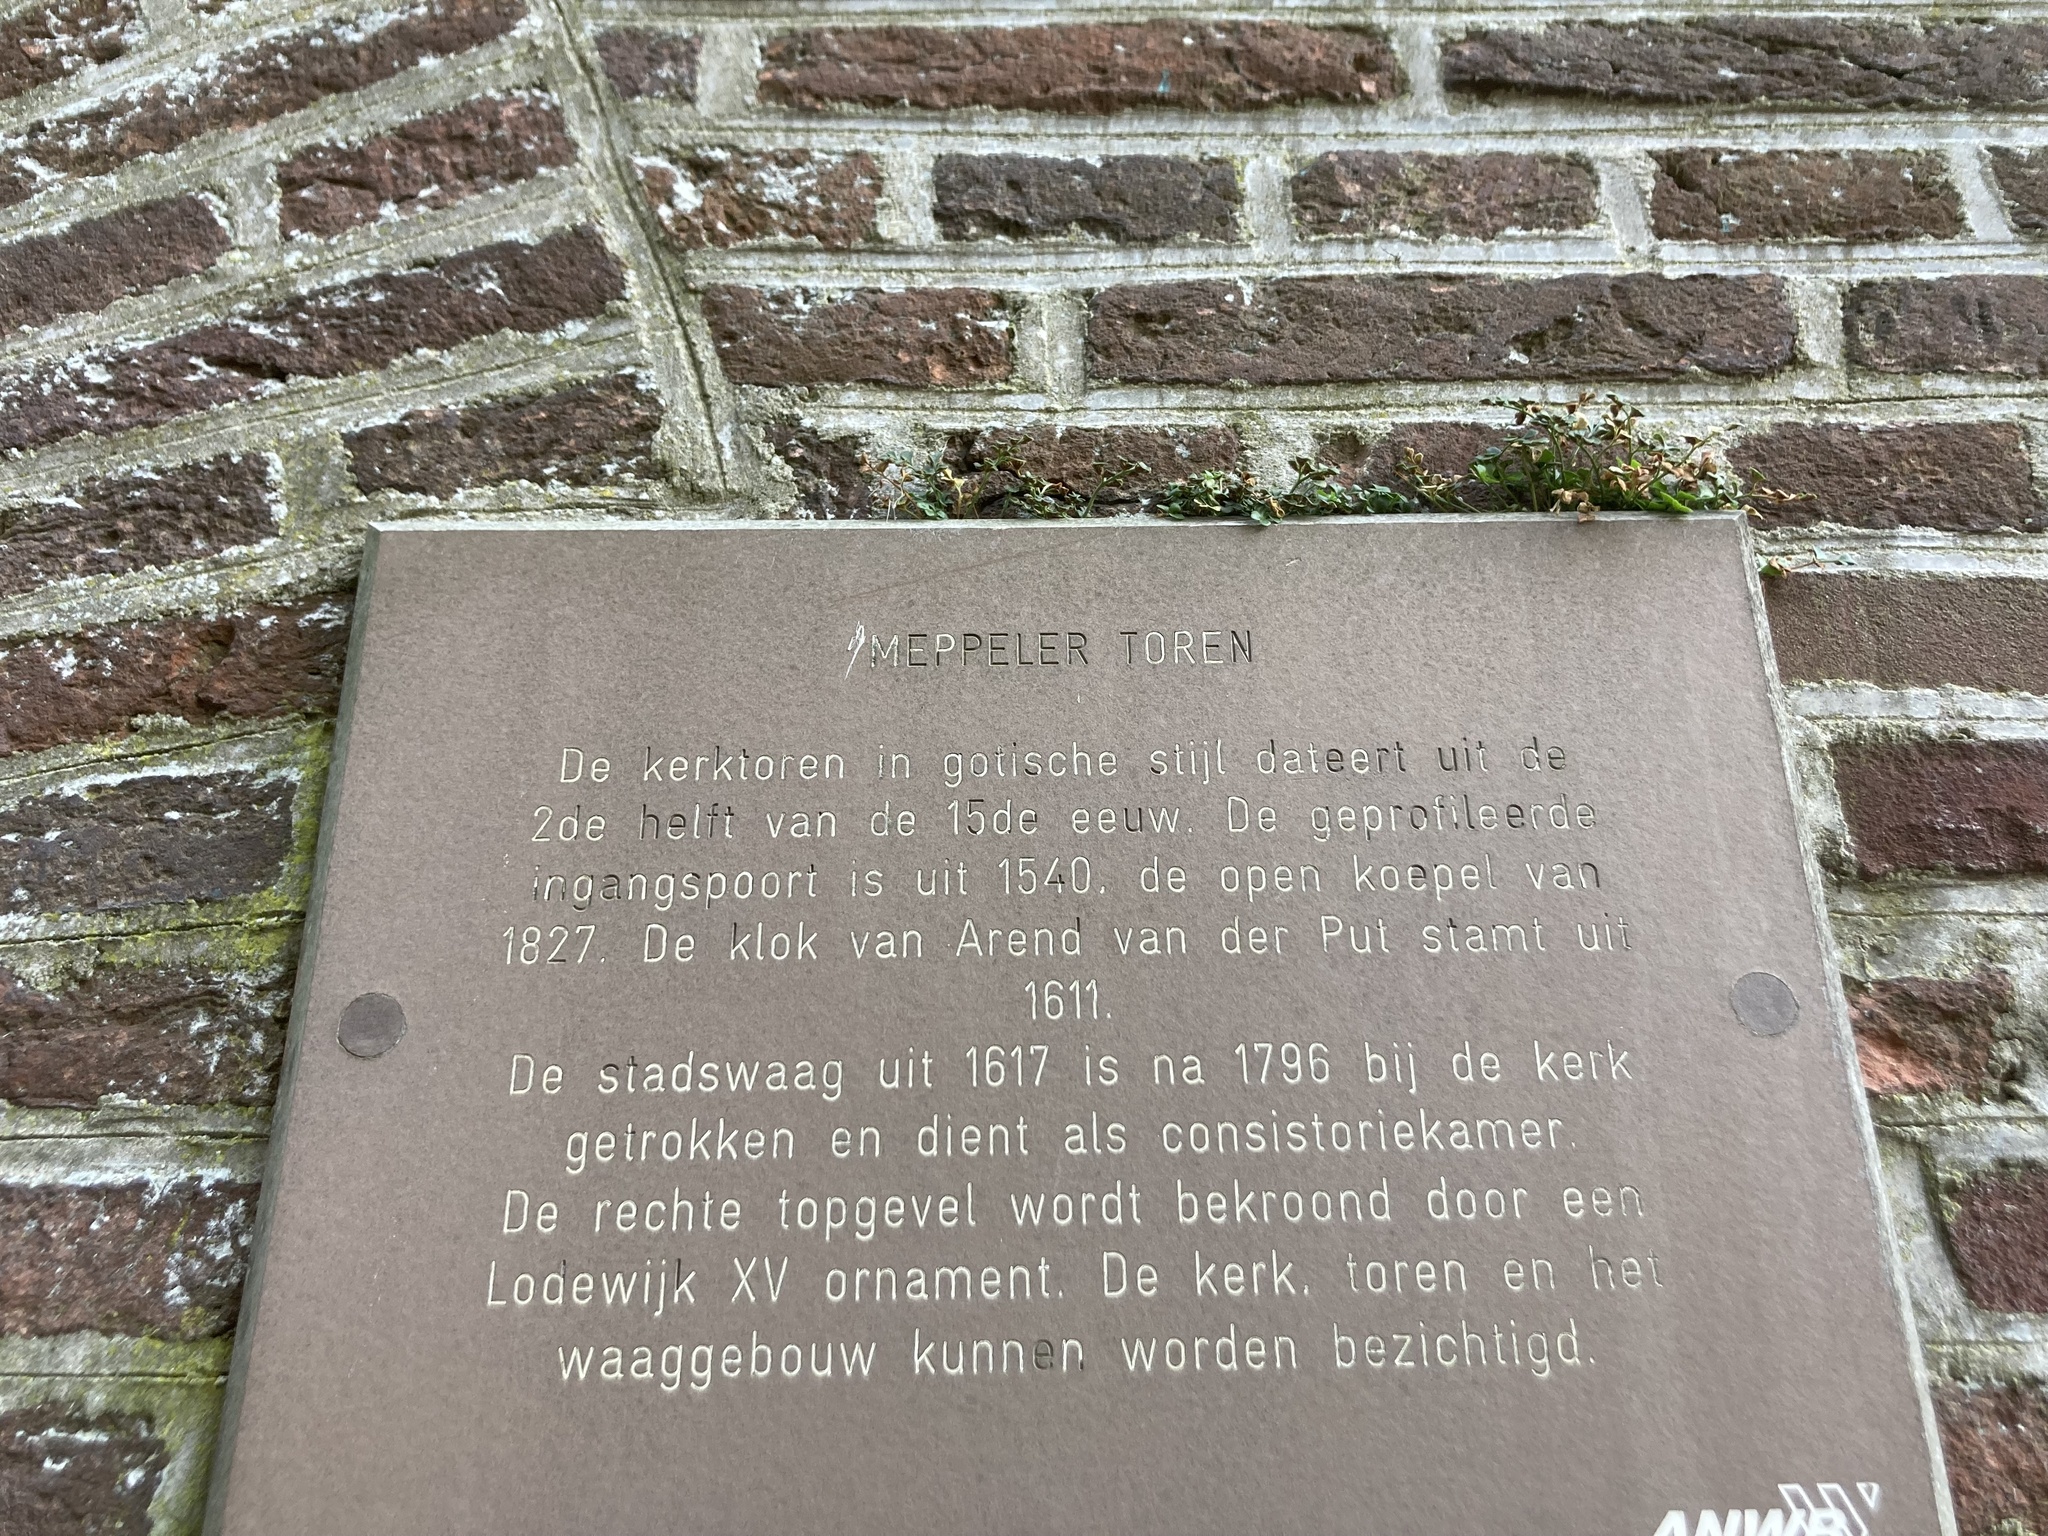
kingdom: Plantae
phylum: Tracheophyta
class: Polypodiopsida
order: Polypodiales
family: Aspleniaceae
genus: Asplenium
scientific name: Asplenium ruta-muraria
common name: Wall-rue
